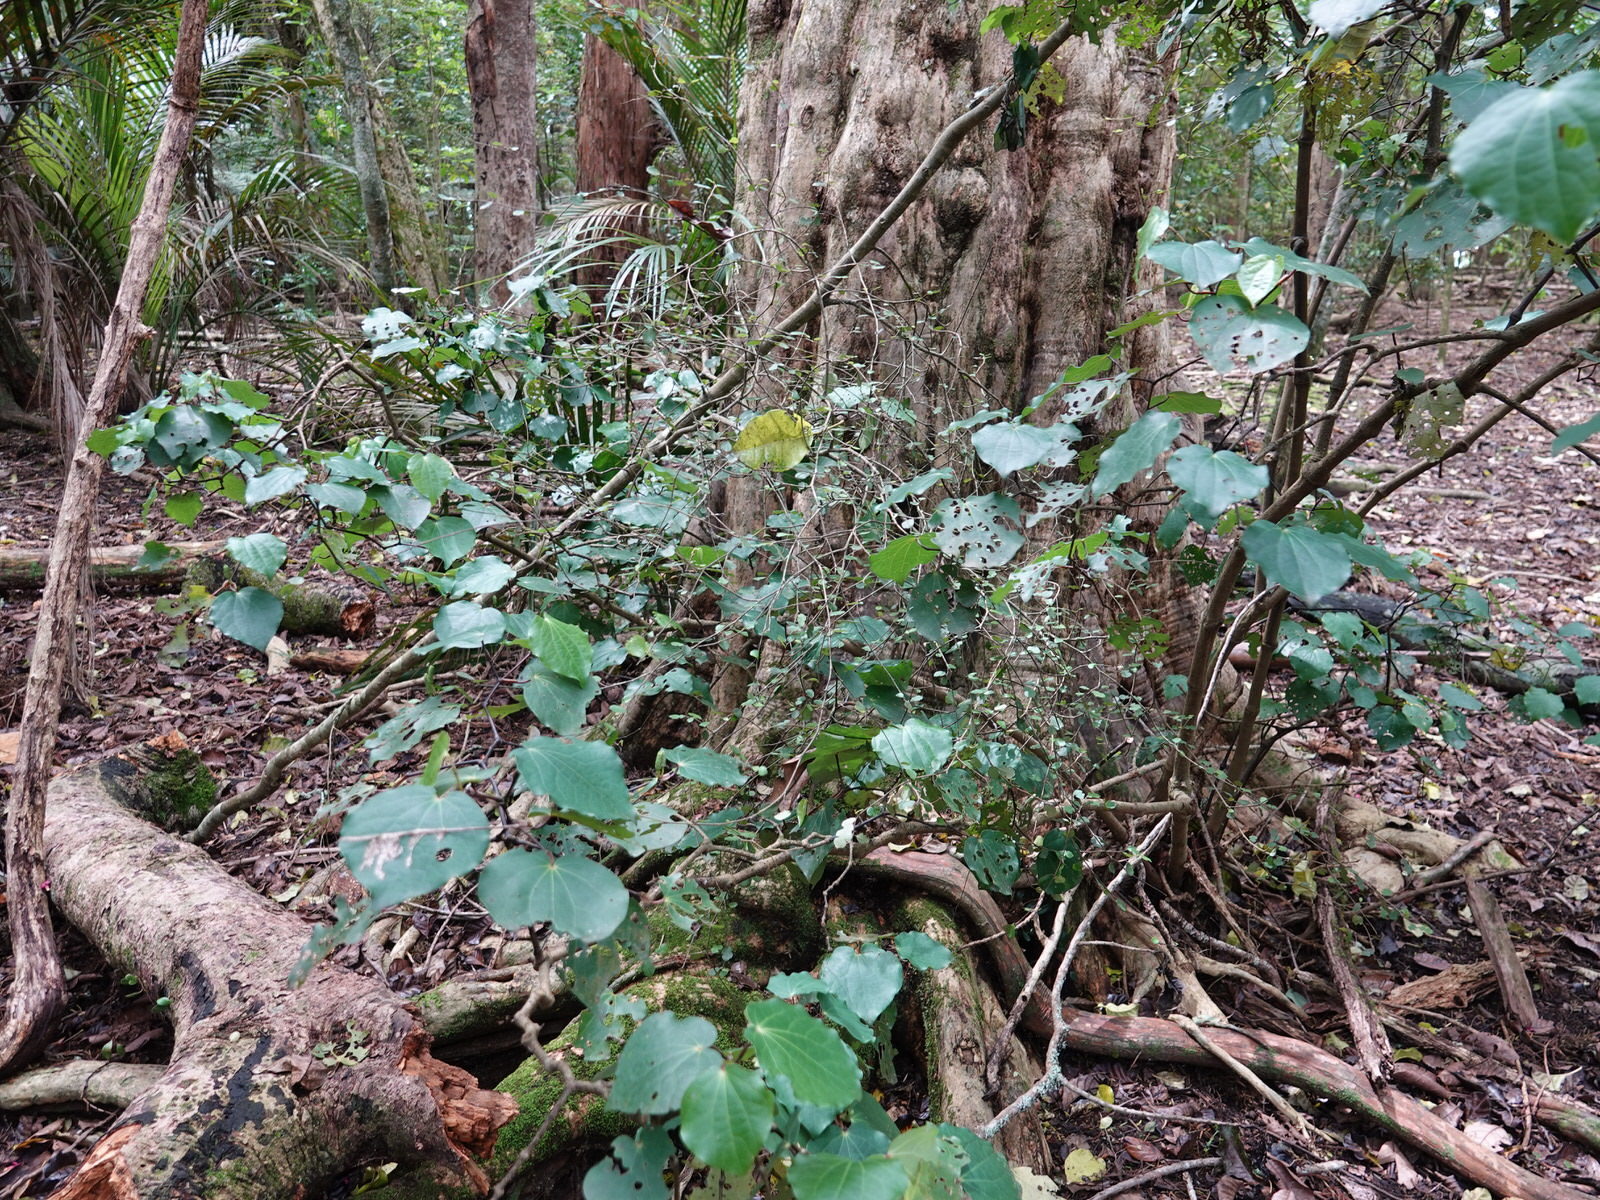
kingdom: Plantae
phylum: Tracheophyta
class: Magnoliopsida
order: Rosales
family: Moraceae
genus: Paratrophis
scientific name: Paratrophis microphylla
